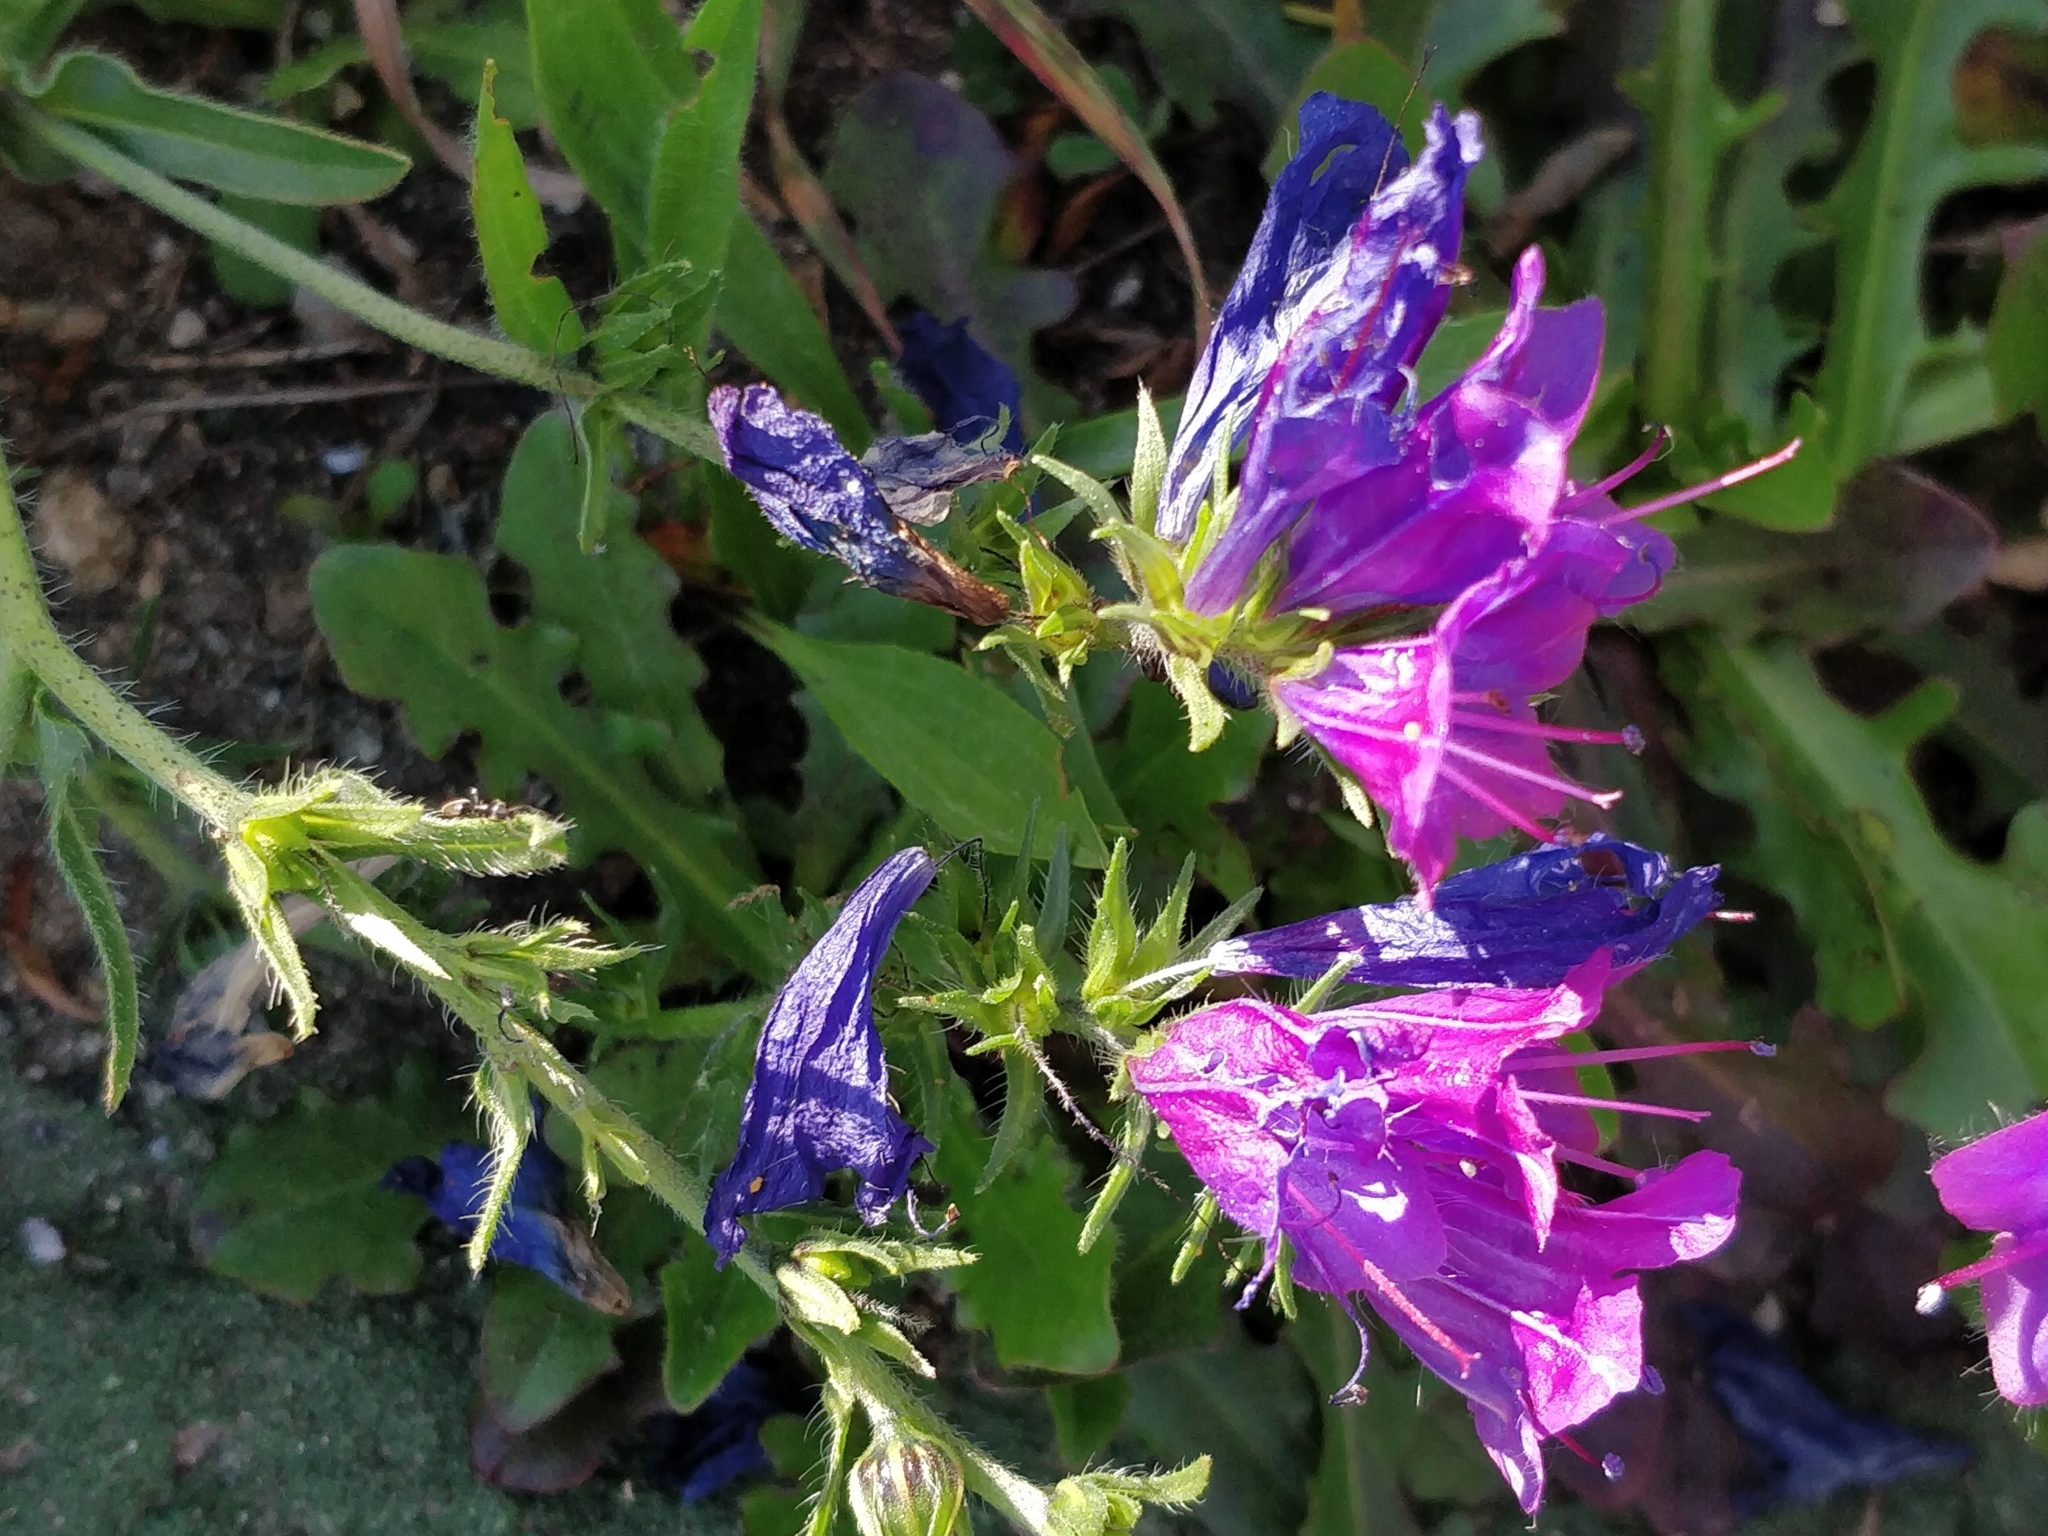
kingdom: Plantae
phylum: Tracheophyta
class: Magnoliopsida
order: Boraginales
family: Boraginaceae
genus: Echium
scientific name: Echium plantagineum
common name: Purple viper's-bugloss
